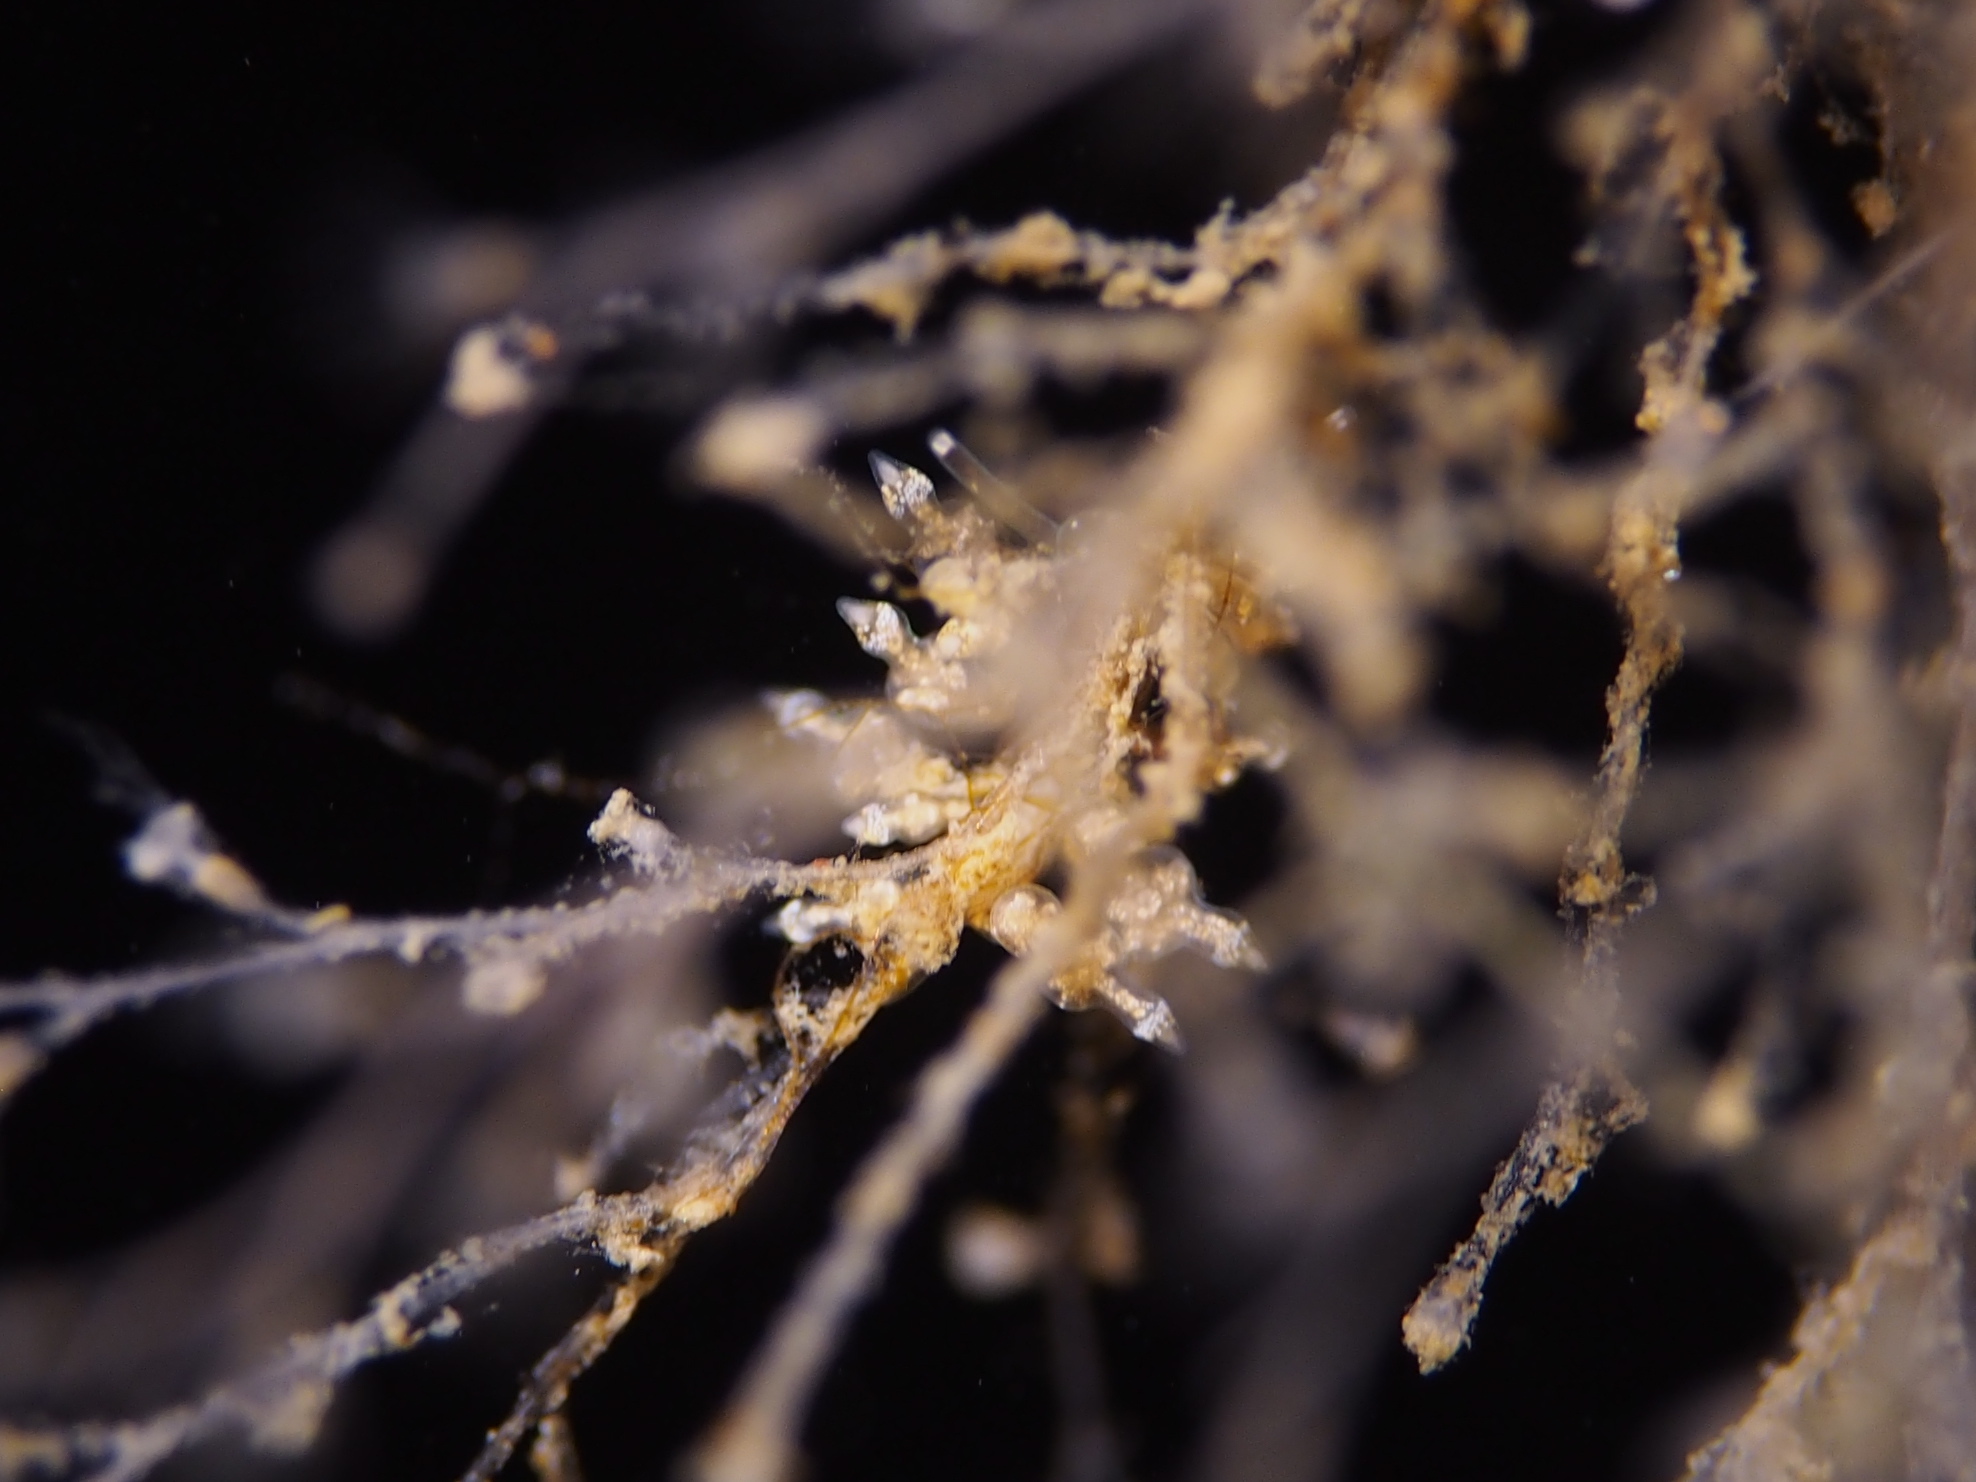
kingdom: Animalia
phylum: Mollusca
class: Gastropoda
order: Nudibranchia
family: Eubranchidae
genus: Eubranchus
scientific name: Eubranchus exiguus
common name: Balloon aeolis
